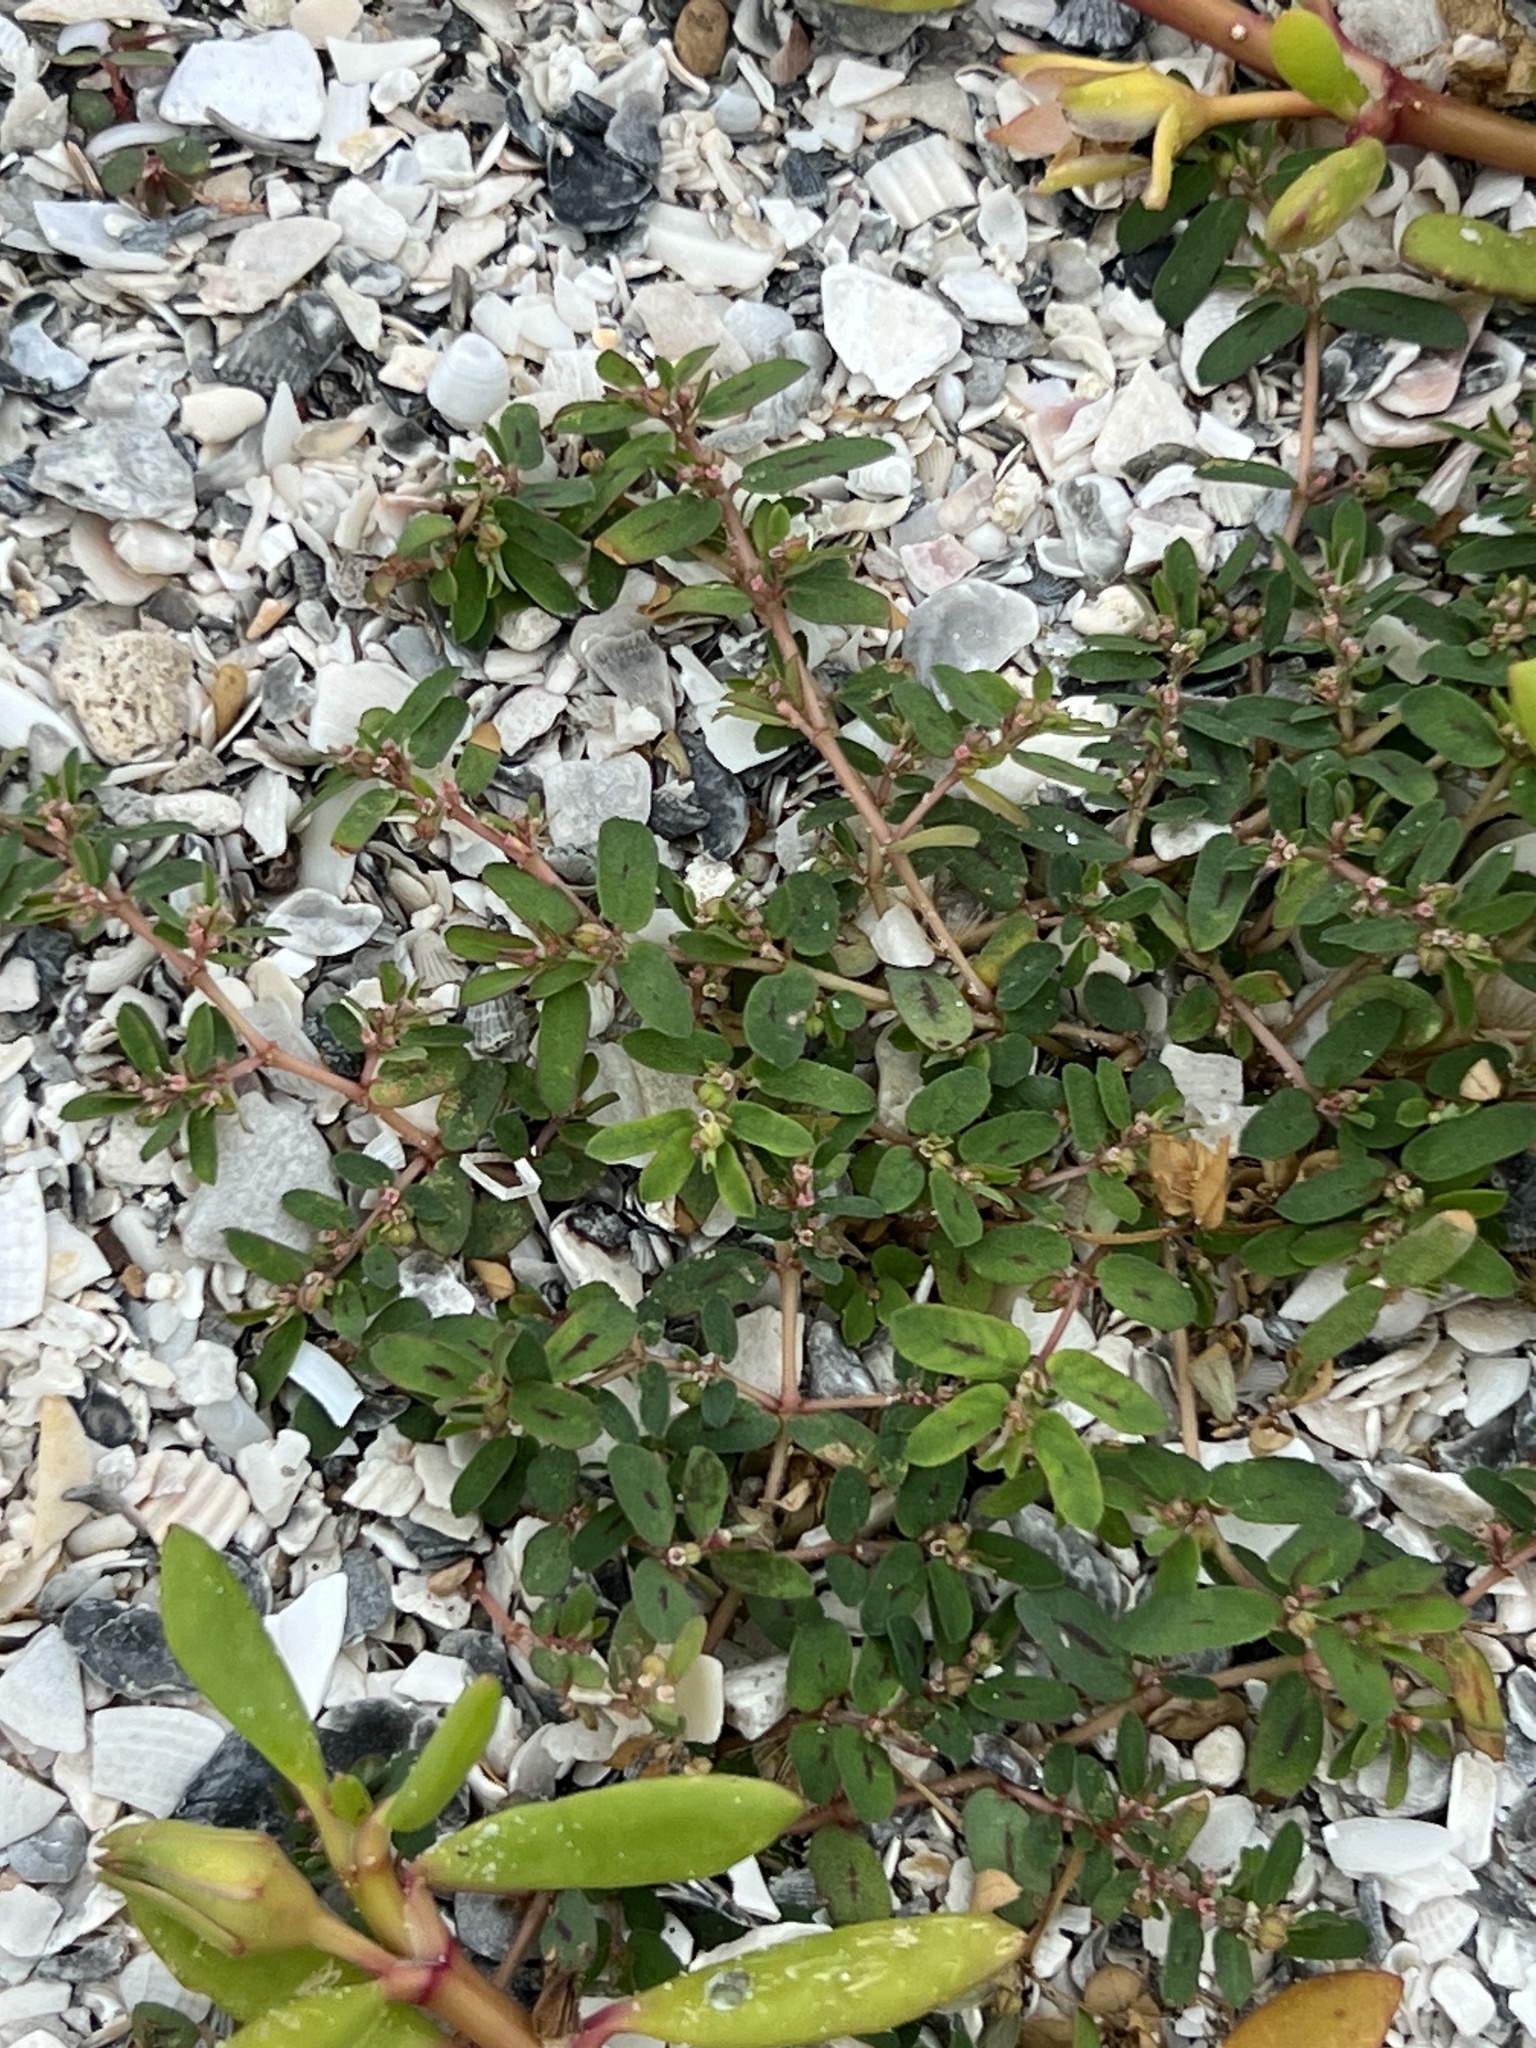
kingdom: Plantae
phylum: Tracheophyta
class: Magnoliopsida
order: Malpighiales
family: Euphorbiaceae
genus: Euphorbia
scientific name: Euphorbia maculata
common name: Spotted spurge
